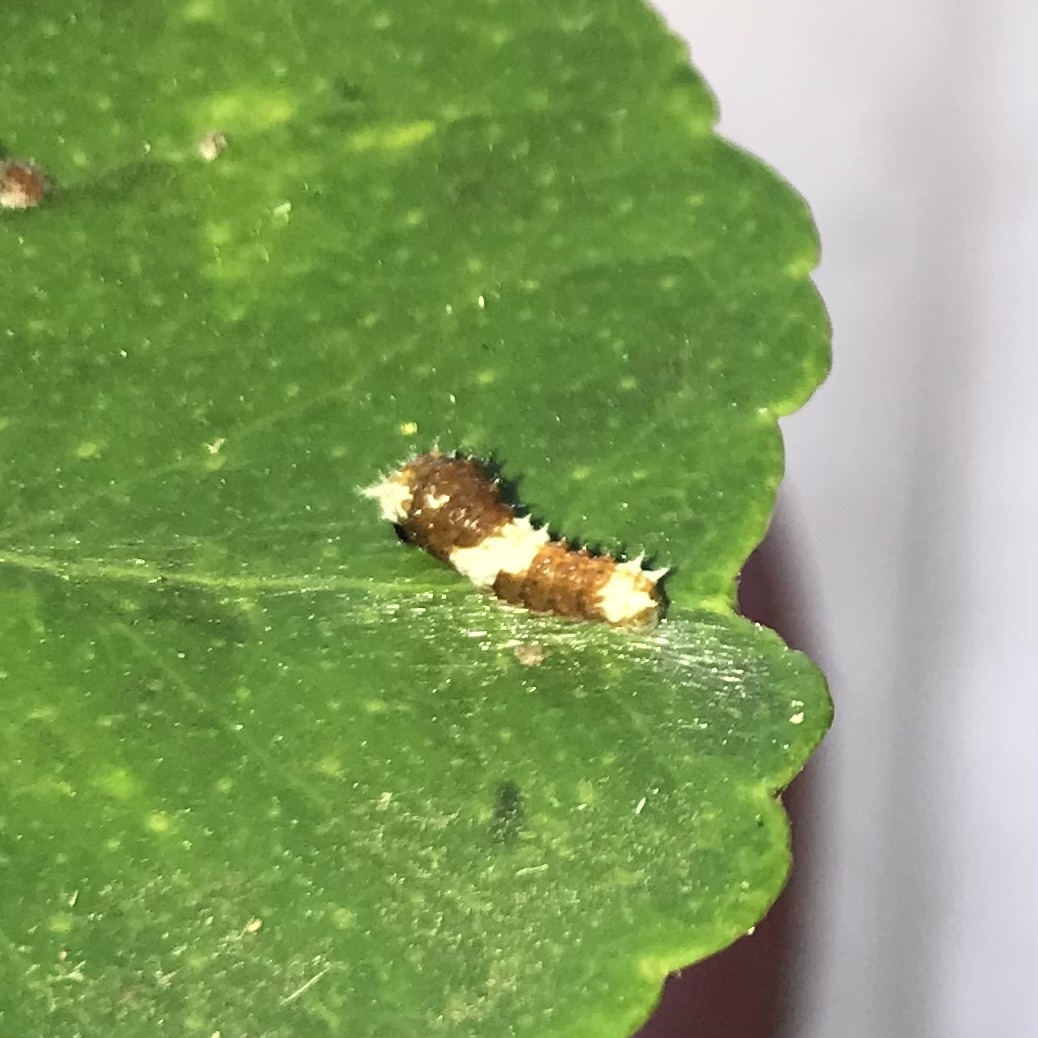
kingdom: Animalia
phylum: Arthropoda
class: Insecta
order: Lepidoptera
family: Papilionidae
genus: Papilio
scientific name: Papilio aegeus
